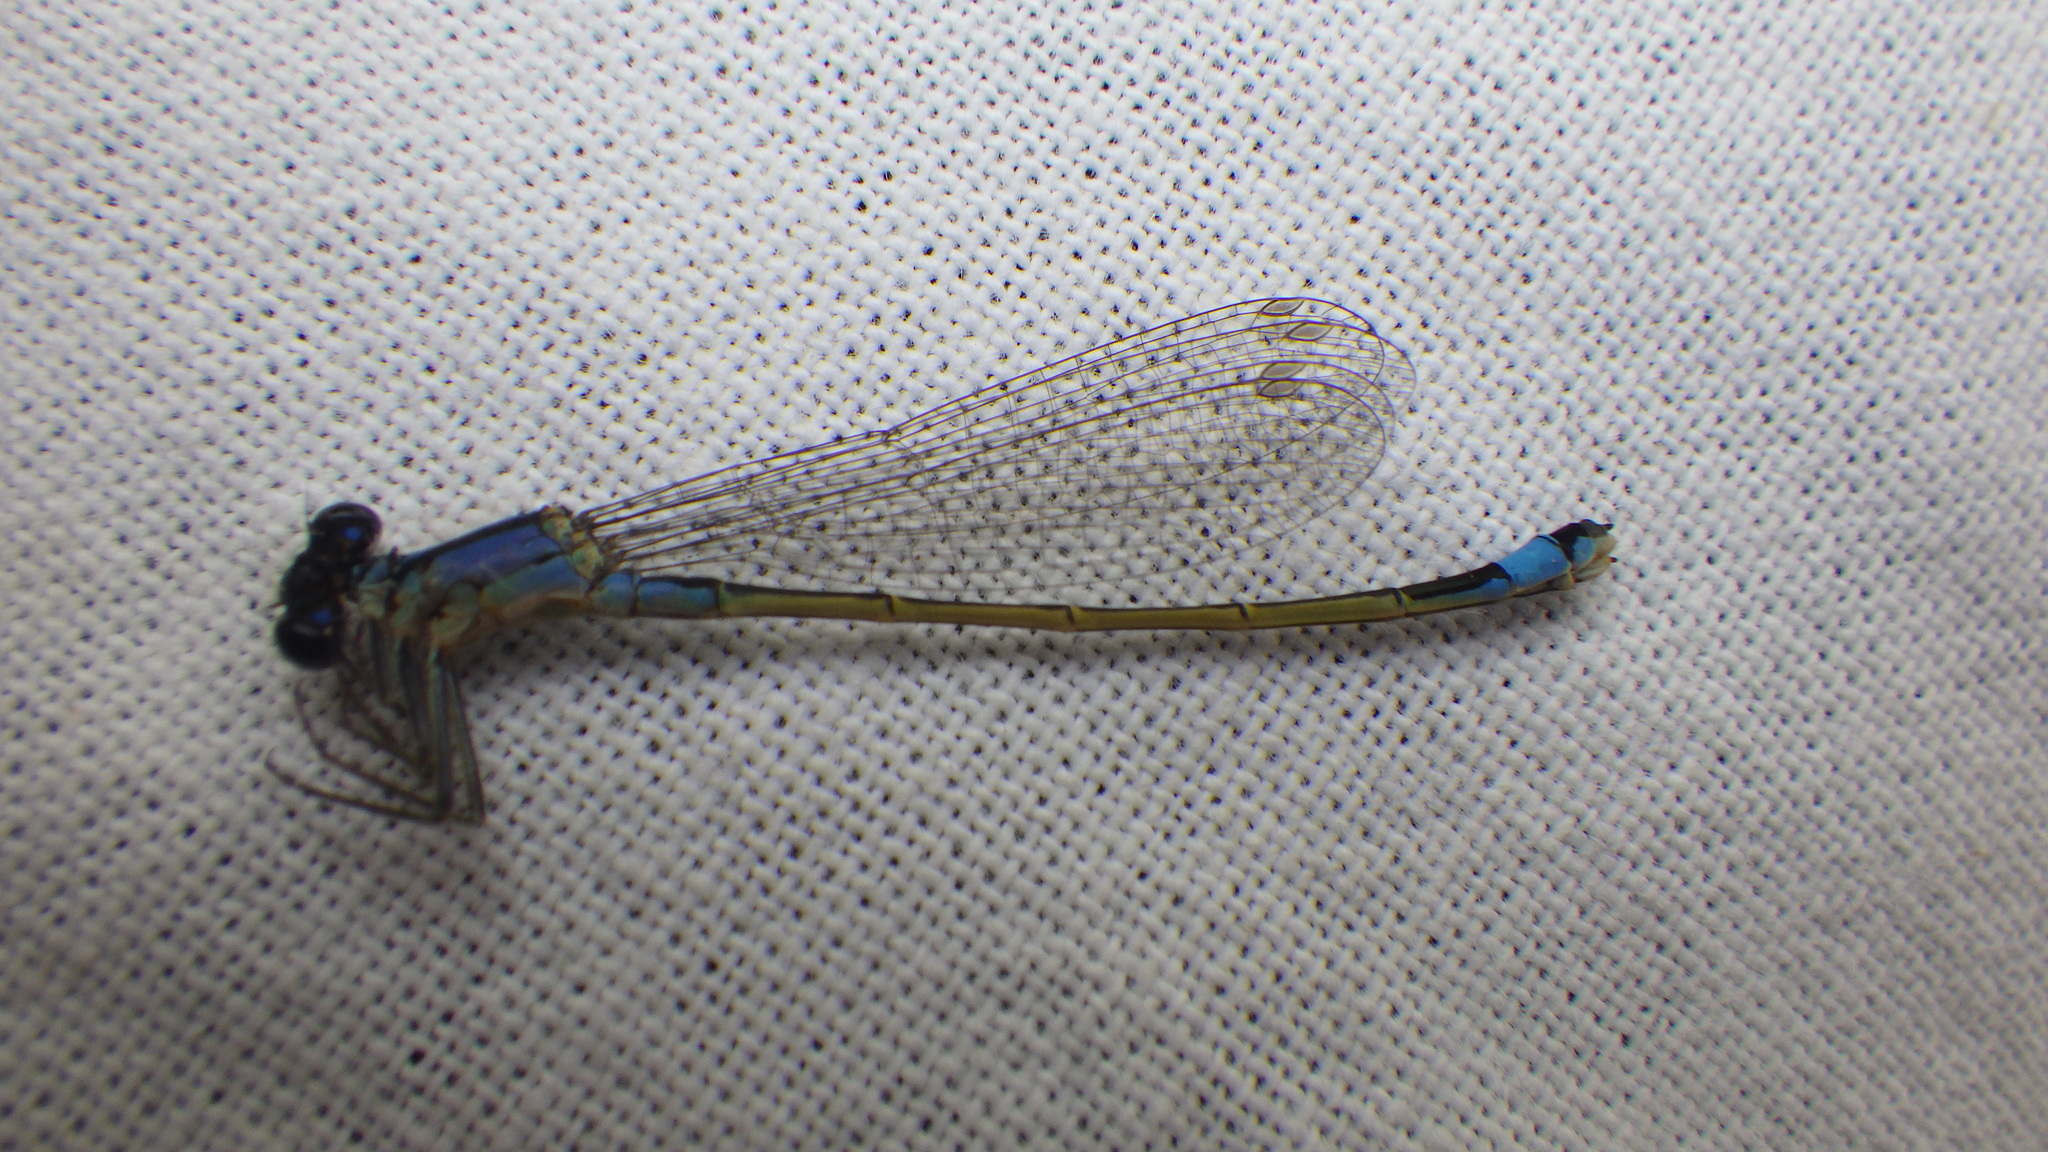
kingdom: Animalia
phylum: Arthropoda
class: Insecta
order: Odonata
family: Coenagrionidae
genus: Ischnura
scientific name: Ischnura elegans
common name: Blue-tailed damselfly
